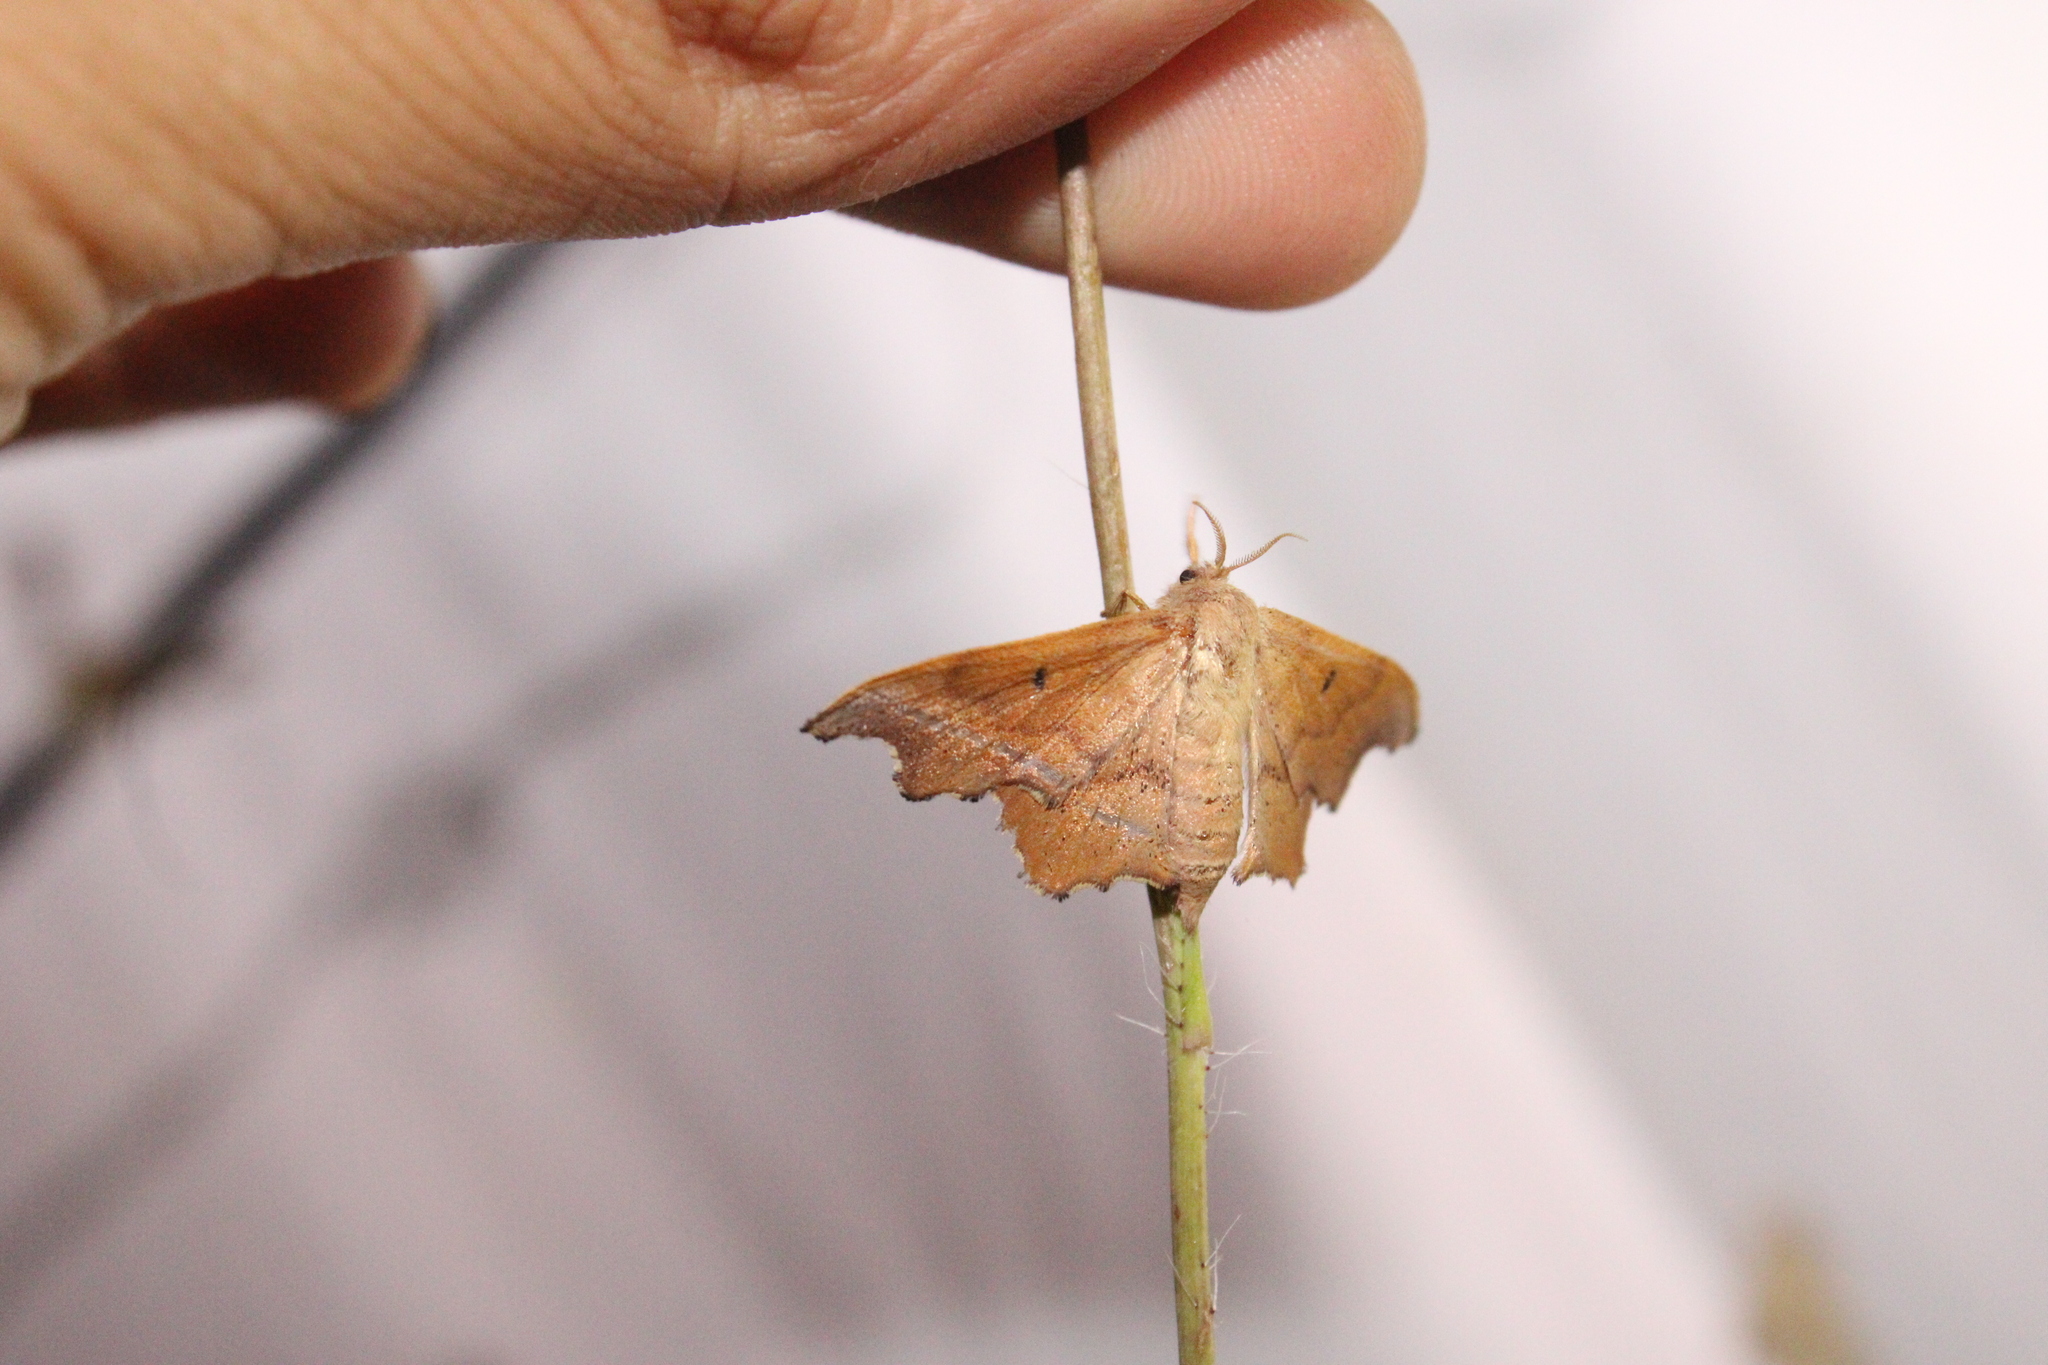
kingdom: Animalia
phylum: Arthropoda
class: Insecta
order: Lepidoptera
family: Mimallonidae
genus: Lacosoma
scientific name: Lacosoma chiridota
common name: Scalloped sack-bearer moth
